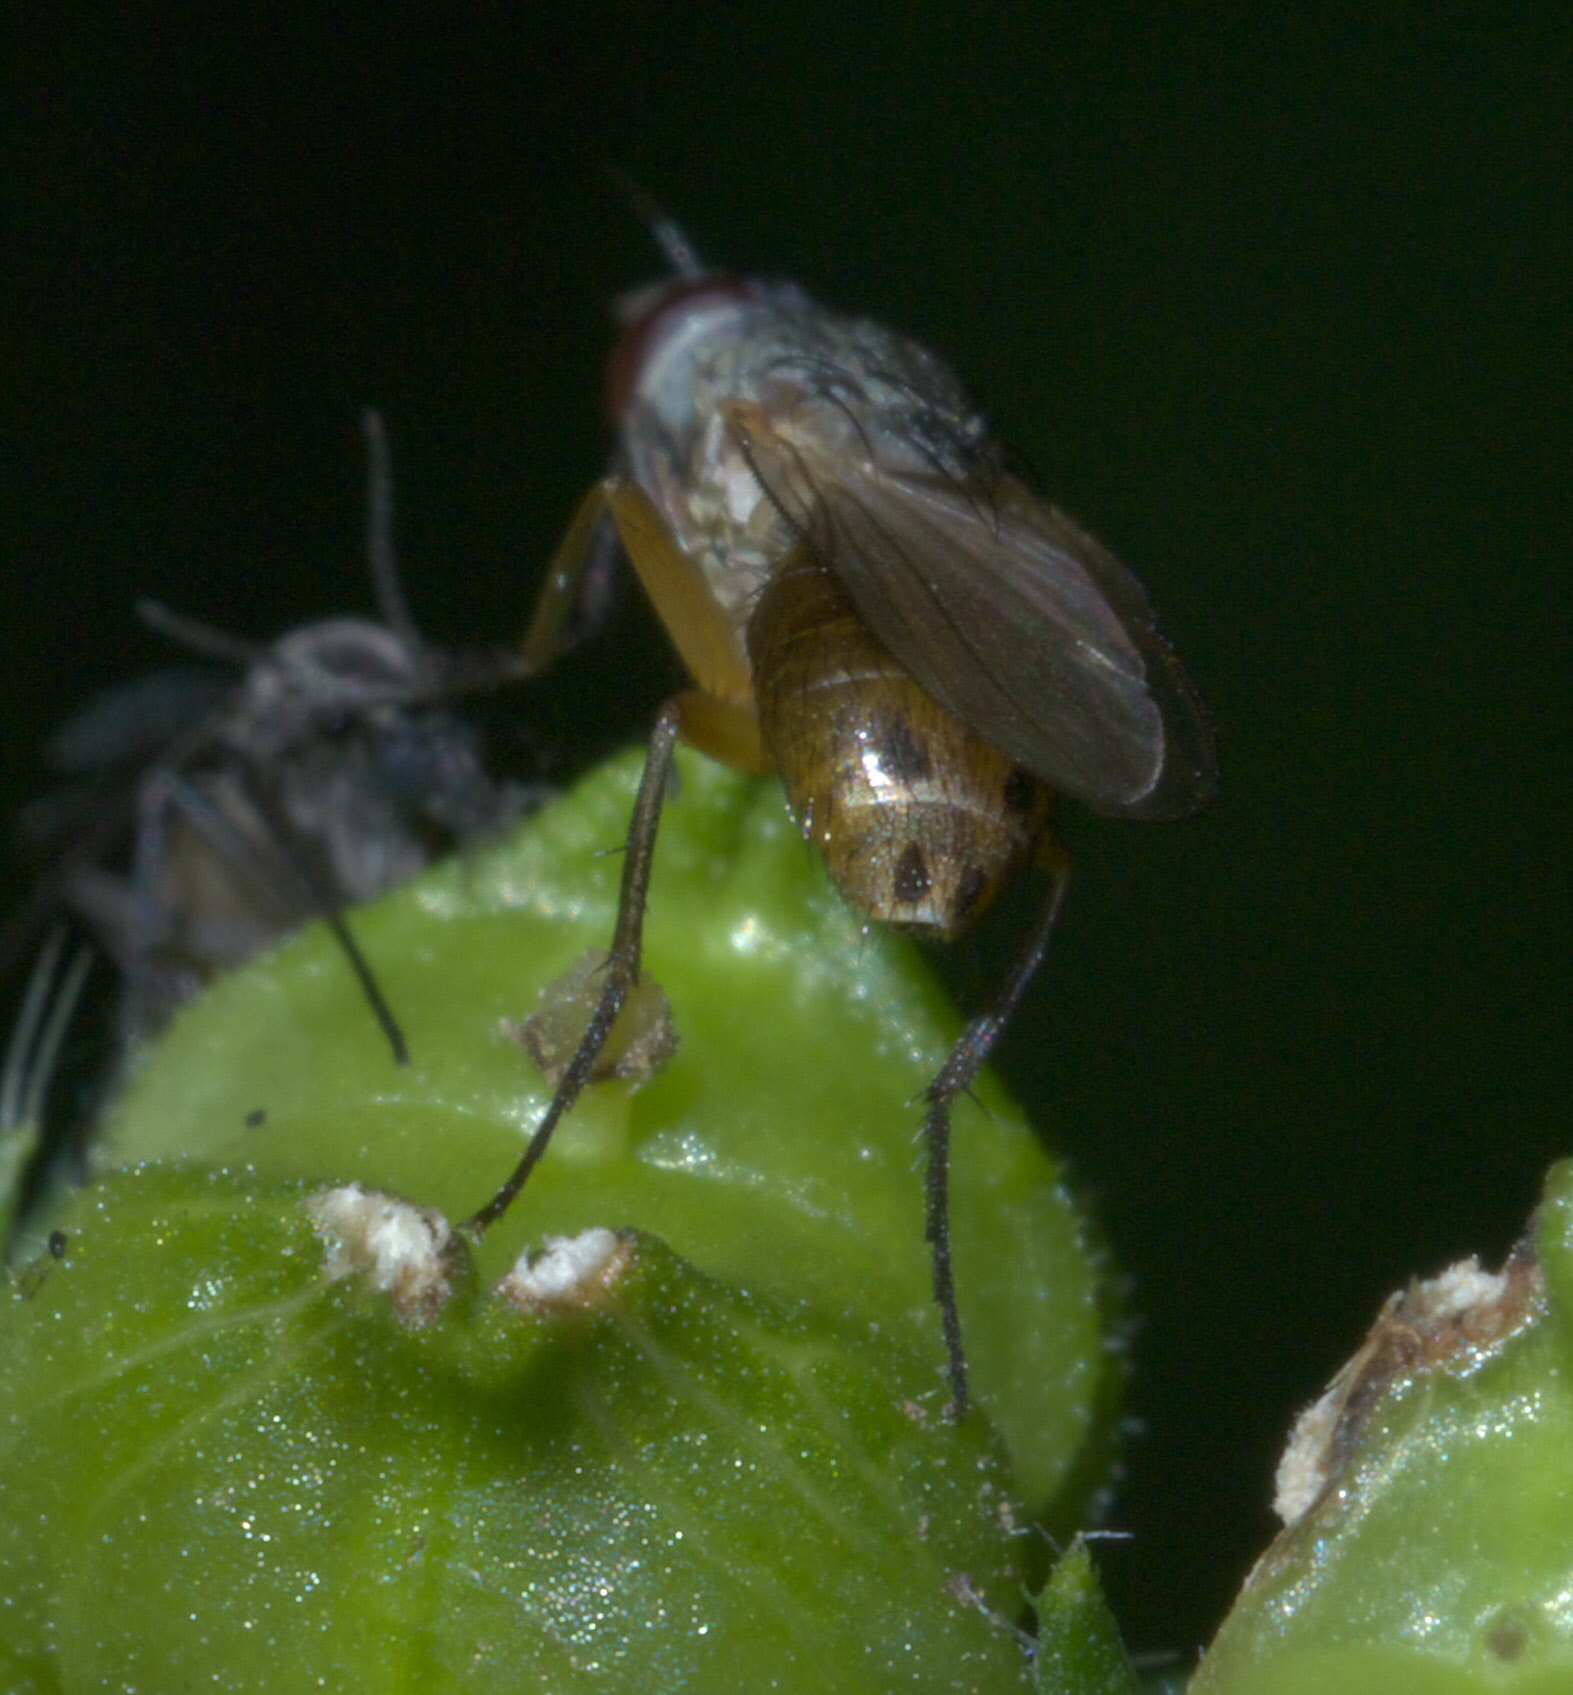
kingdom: Animalia
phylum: Arthropoda
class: Insecta
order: Diptera
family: Muscidae
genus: Atherigona
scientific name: Atherigona reversura
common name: Bermudagrass stem maggot
